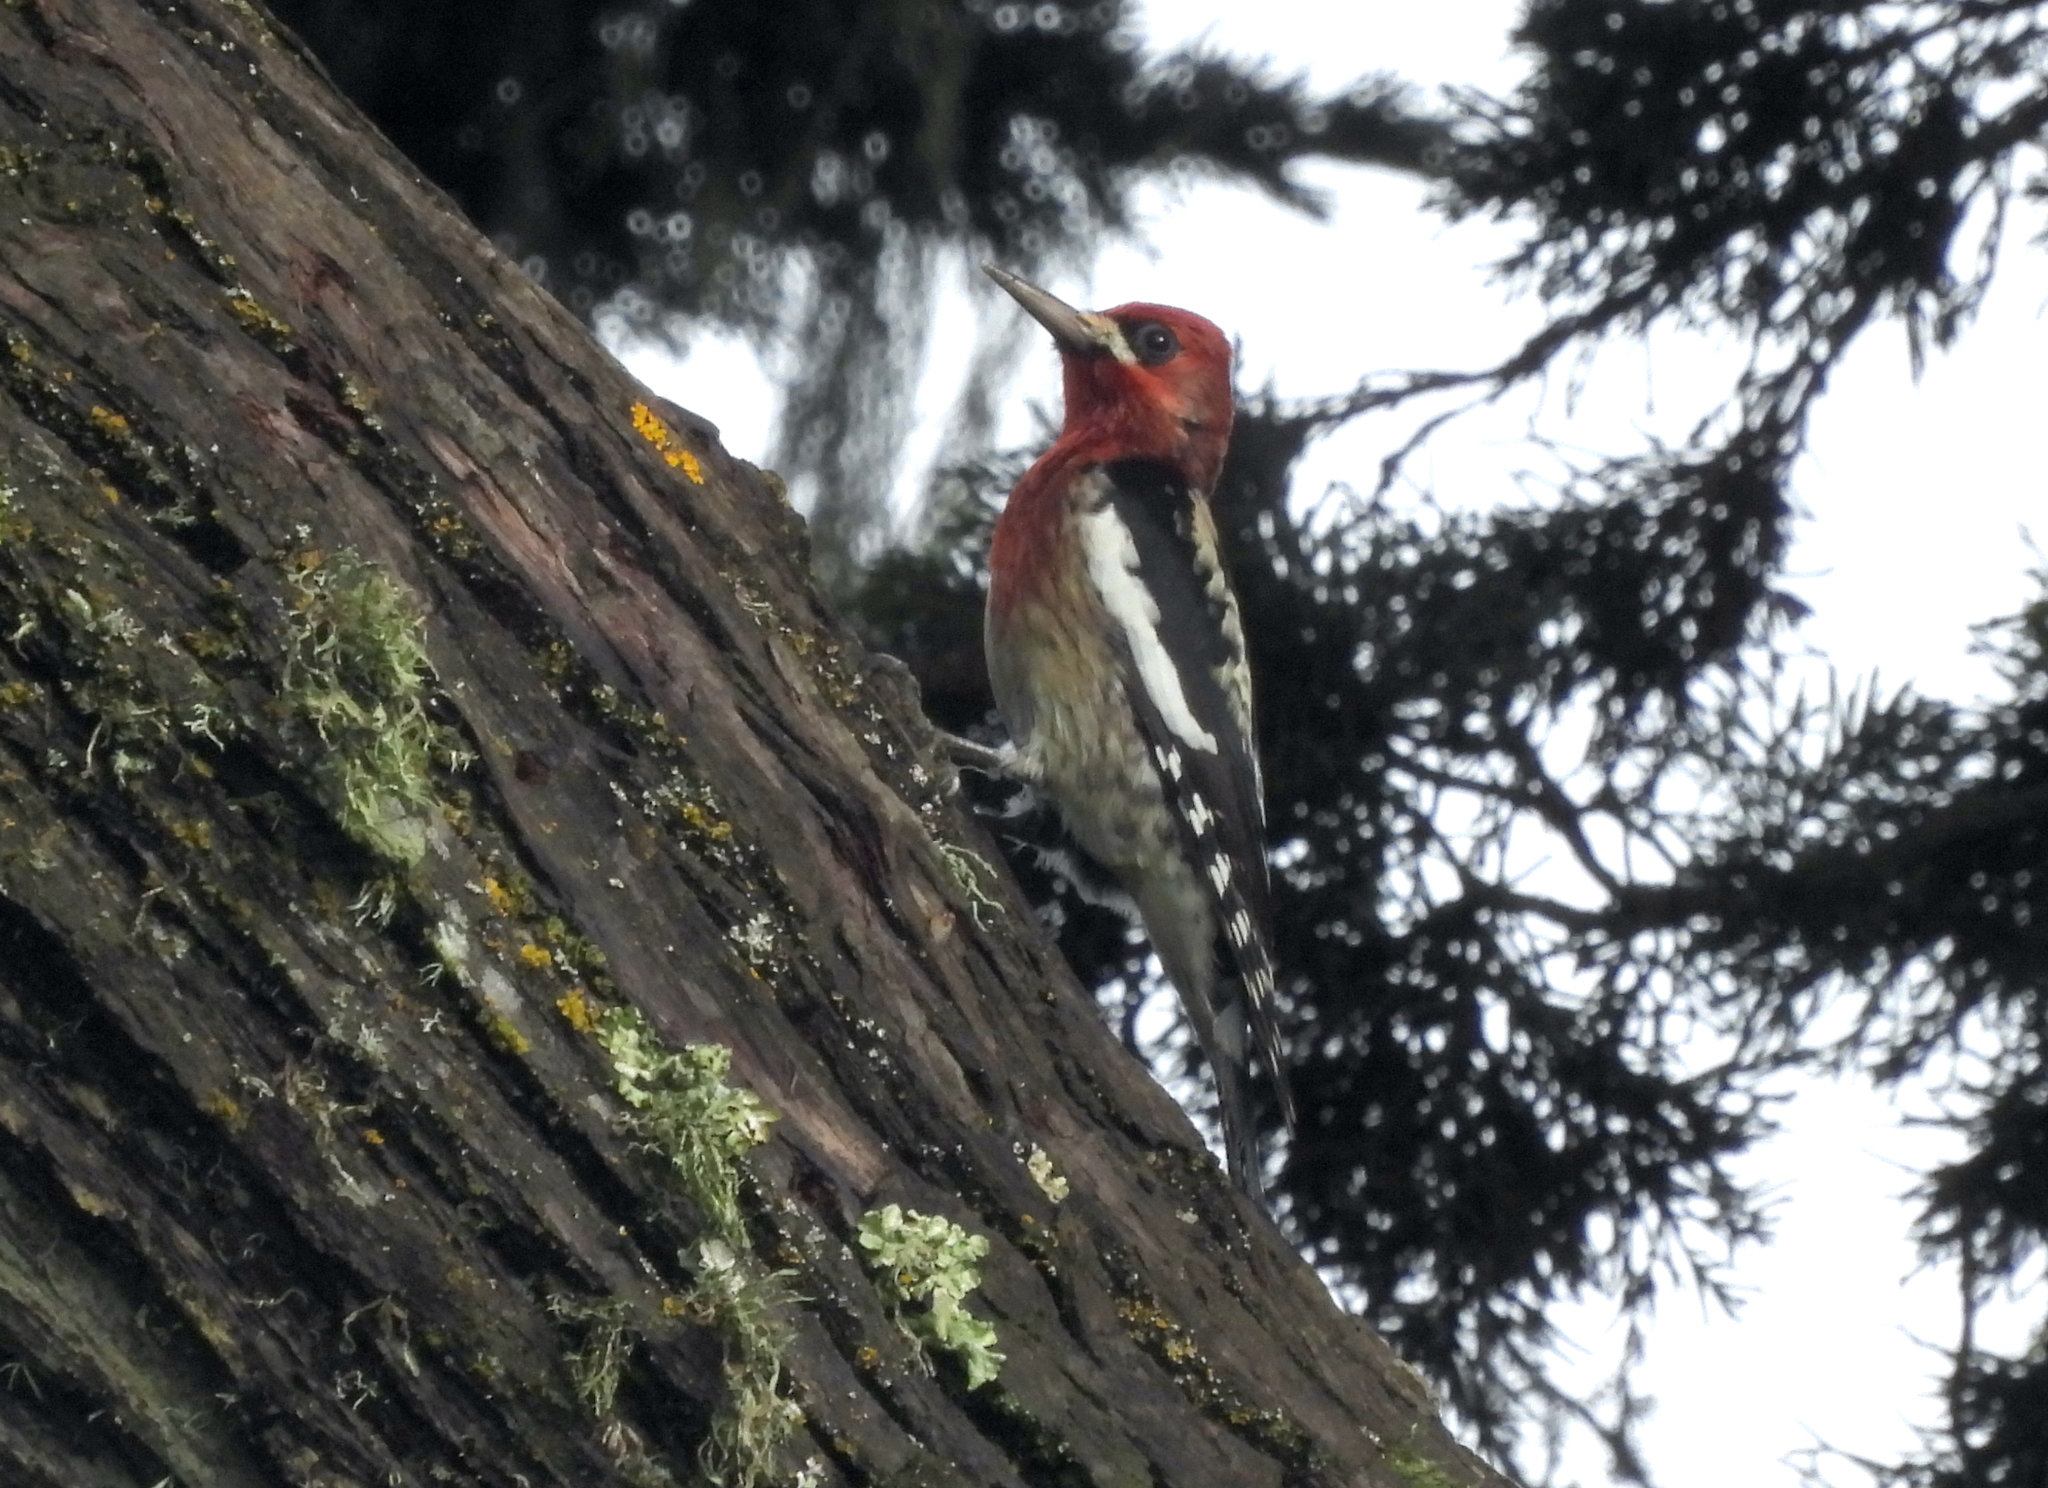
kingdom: Animalia
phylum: Chordata
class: Aves
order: Piciformes
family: Picidae
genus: Sphyrapicus
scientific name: Sphyrapicus ruber
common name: Red-breasted sapsucker
